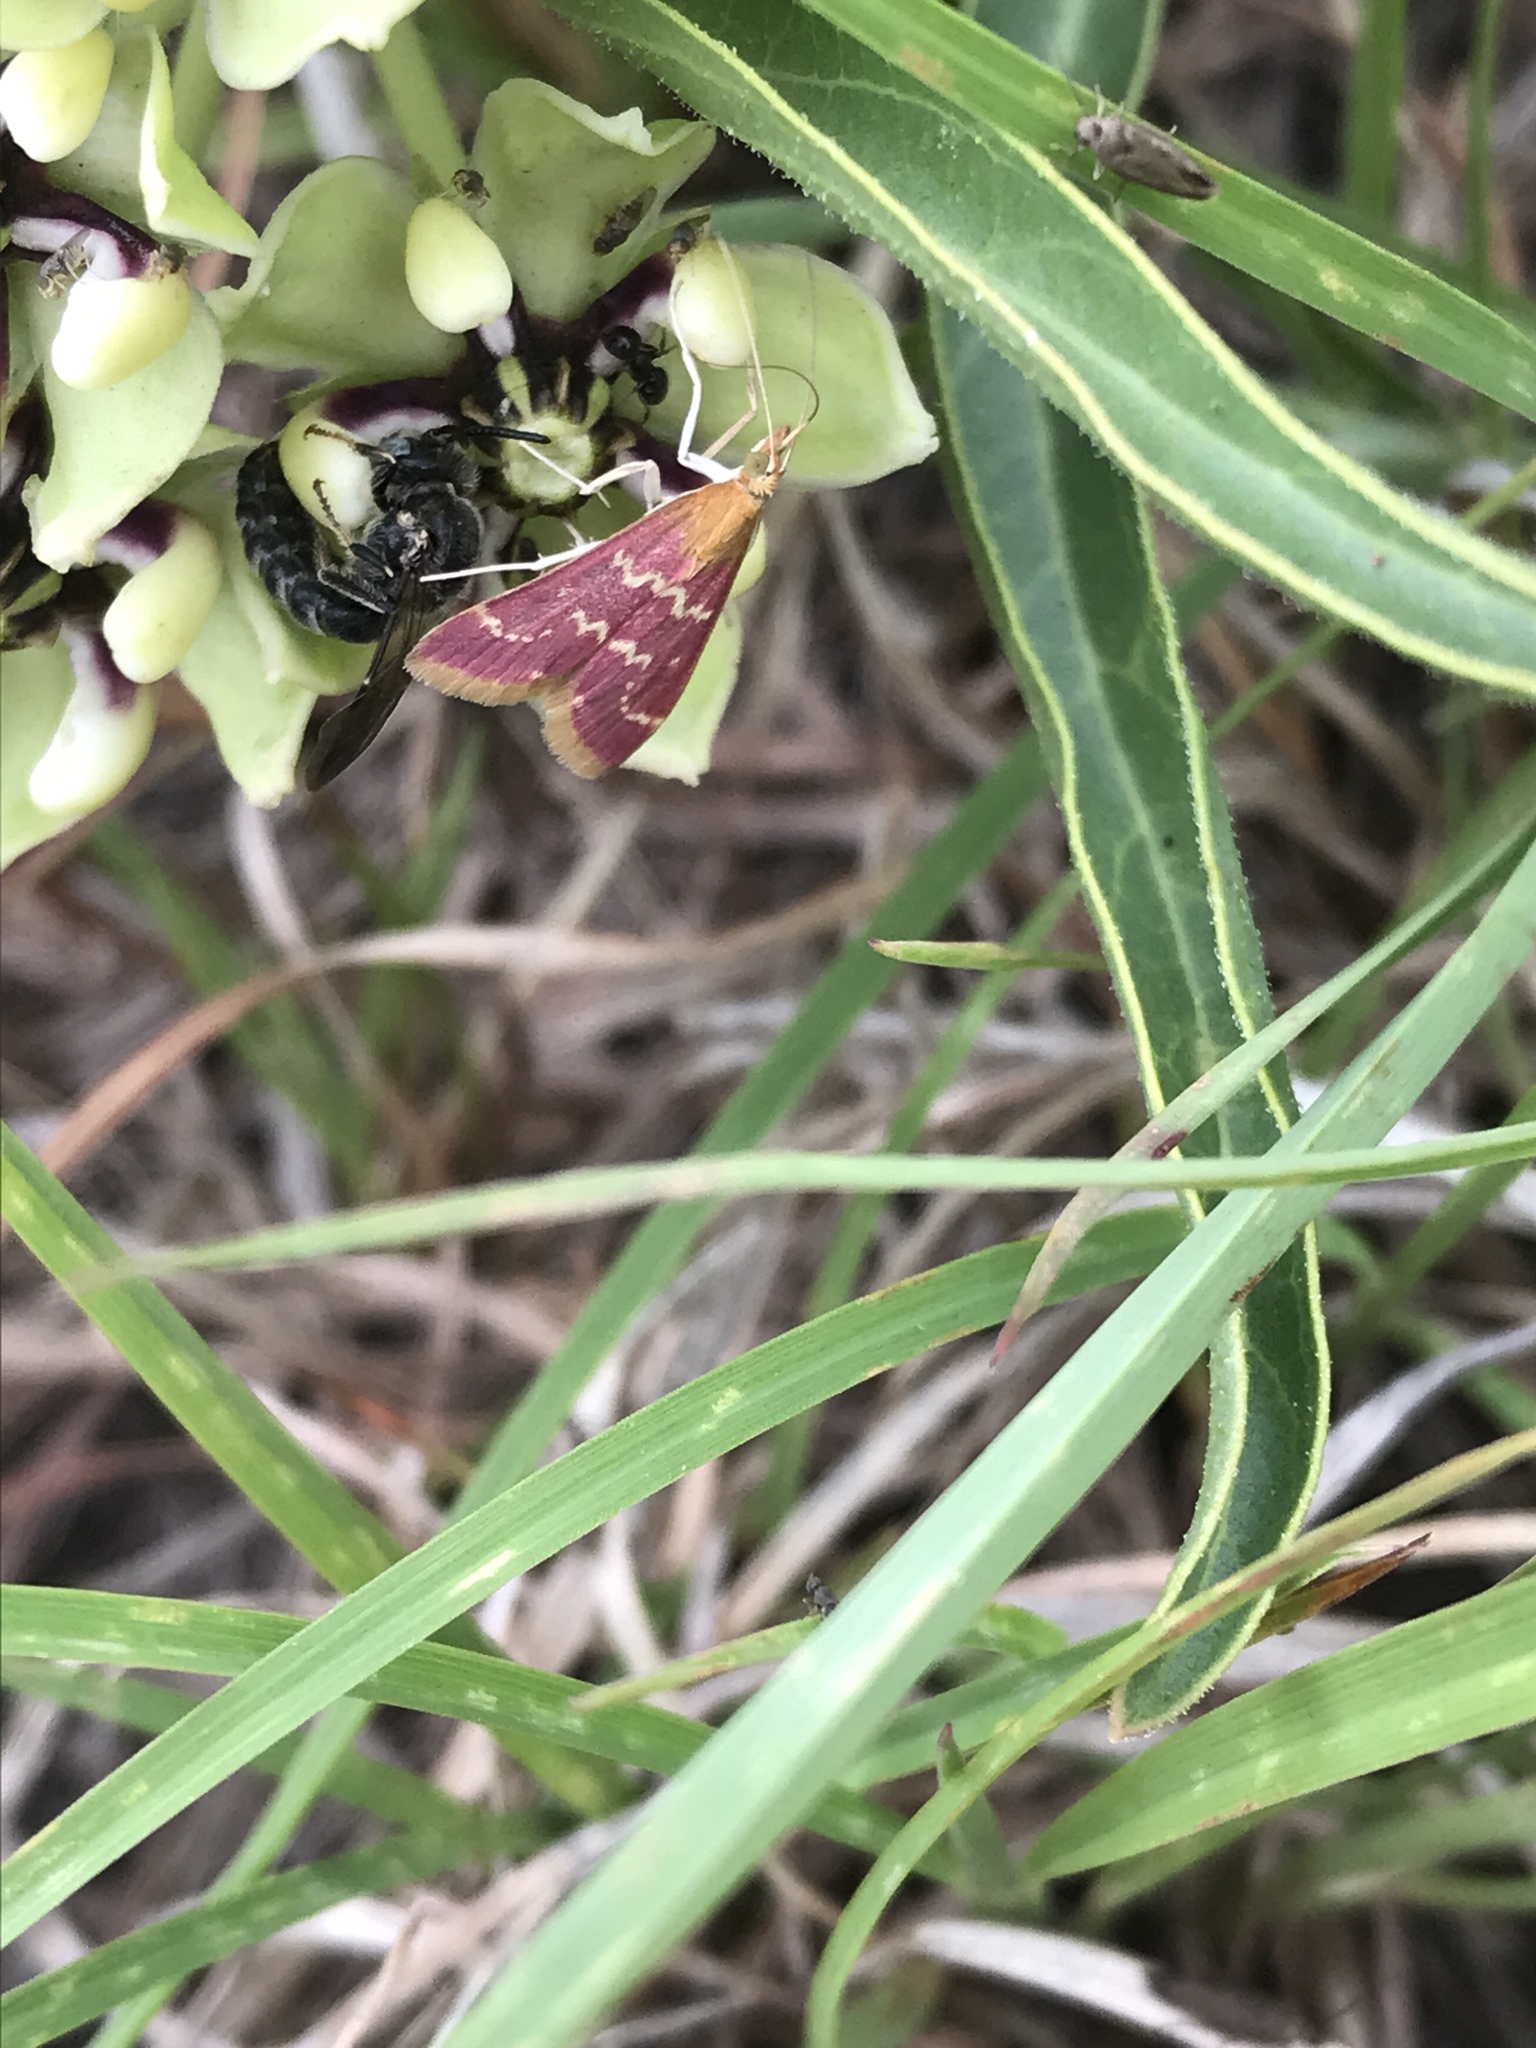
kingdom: Animalia
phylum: Arthropoda
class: Insecta
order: Lepidoptera
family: Crambidae
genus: Pyrausta
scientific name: Pyrausta signatalis
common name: Raspberry pyrausta moth
